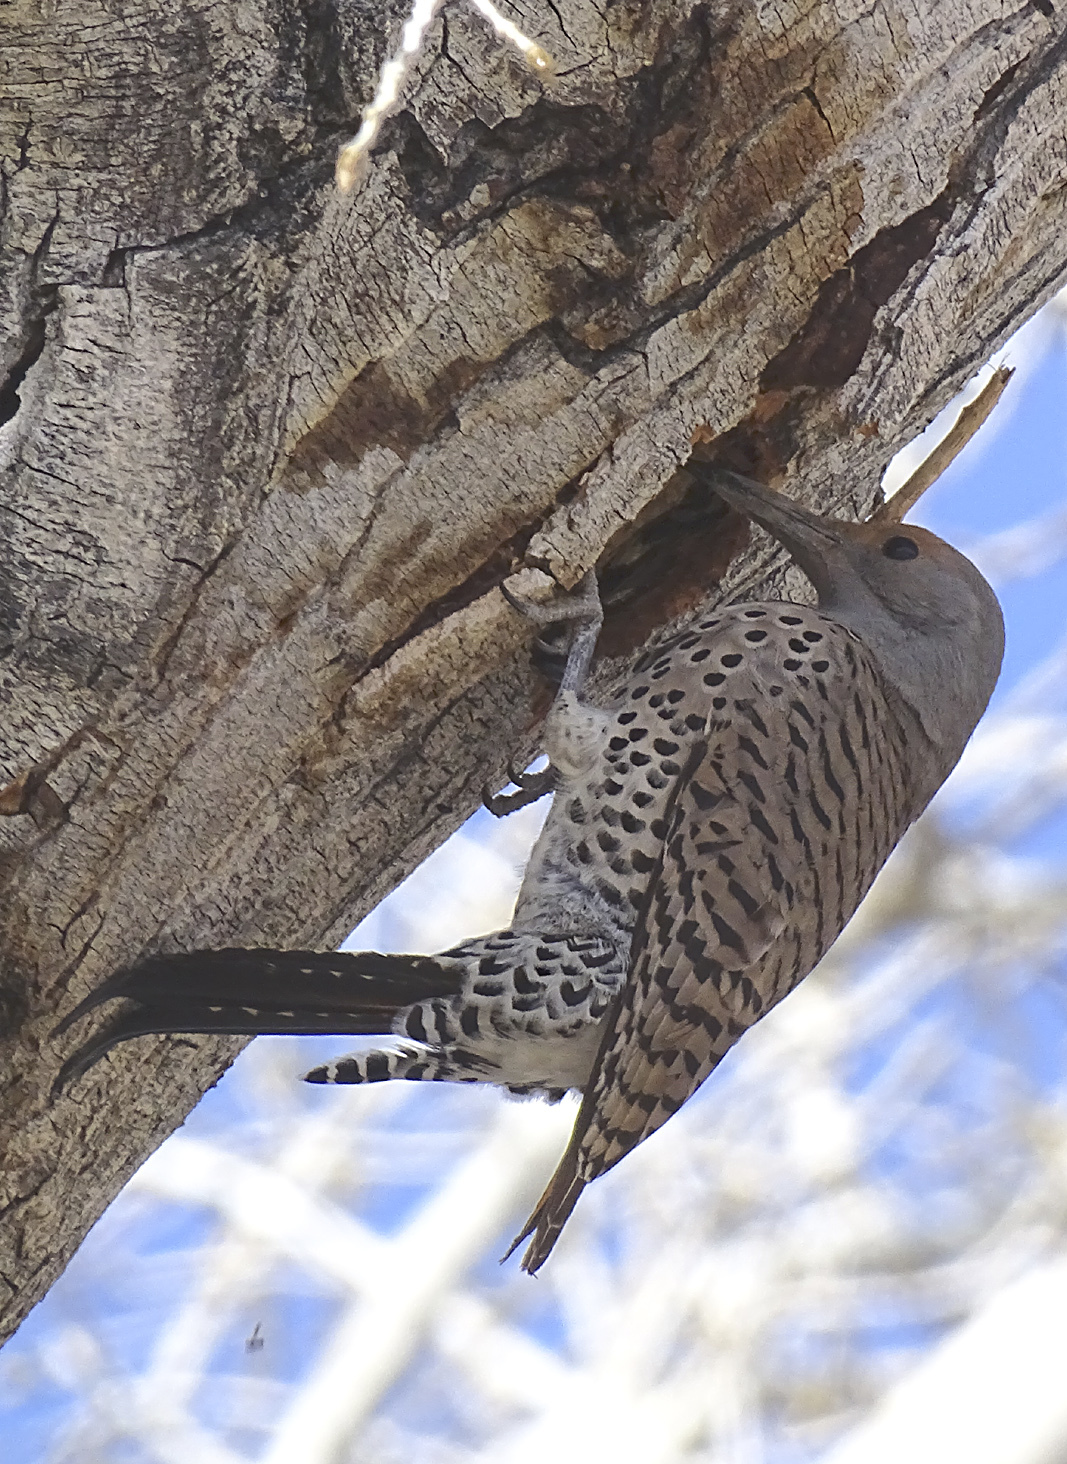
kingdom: Animalia
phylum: Chordata
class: Aves
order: Piciformes
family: Picidae
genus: Colaptes
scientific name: Colaptes auratus
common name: Northern flicker
